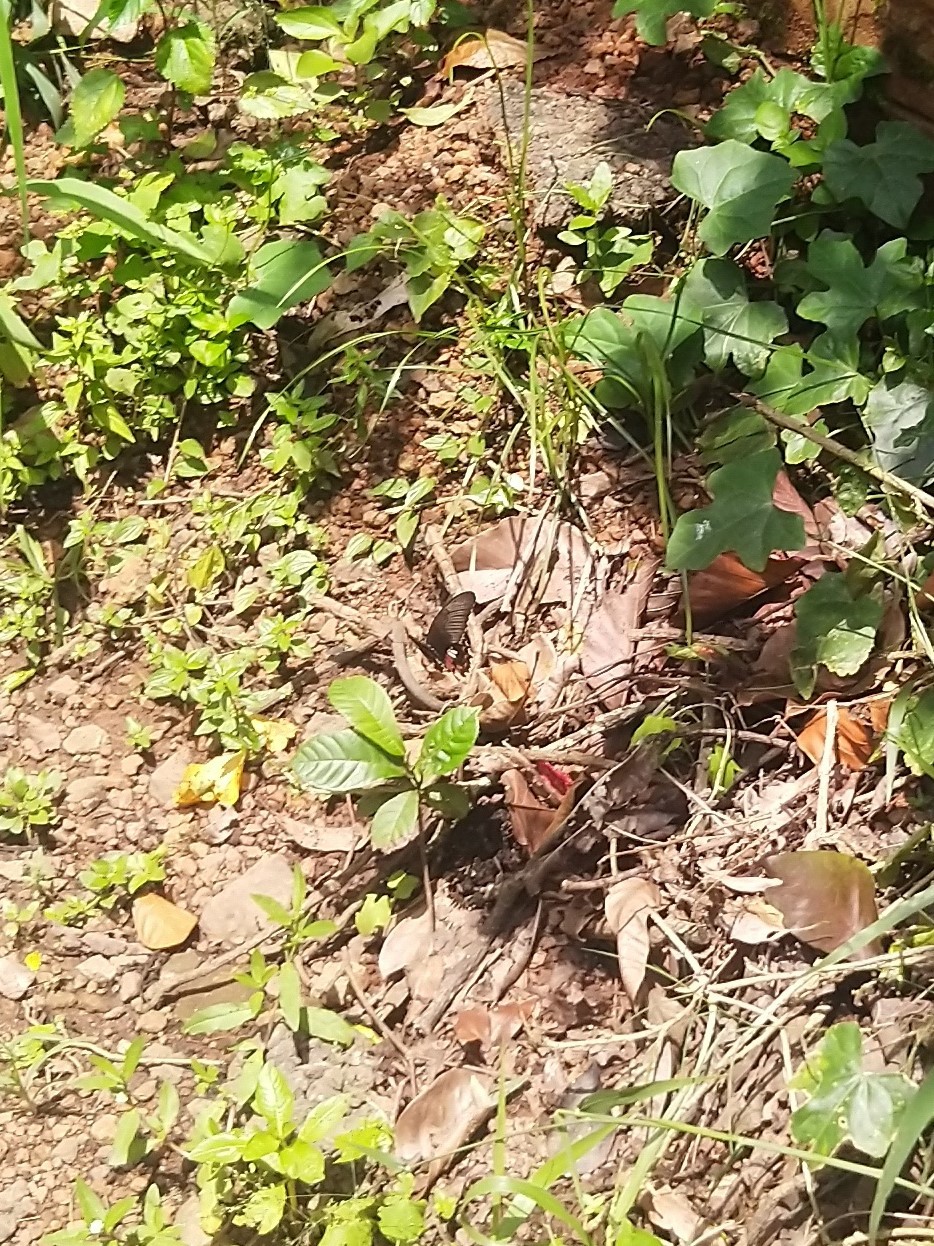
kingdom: Animalia
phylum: Arthropoda
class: Insecta
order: Lepidoptera
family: Papilionidae
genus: Papilio
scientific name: Papilio polytes
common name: Common mormon
